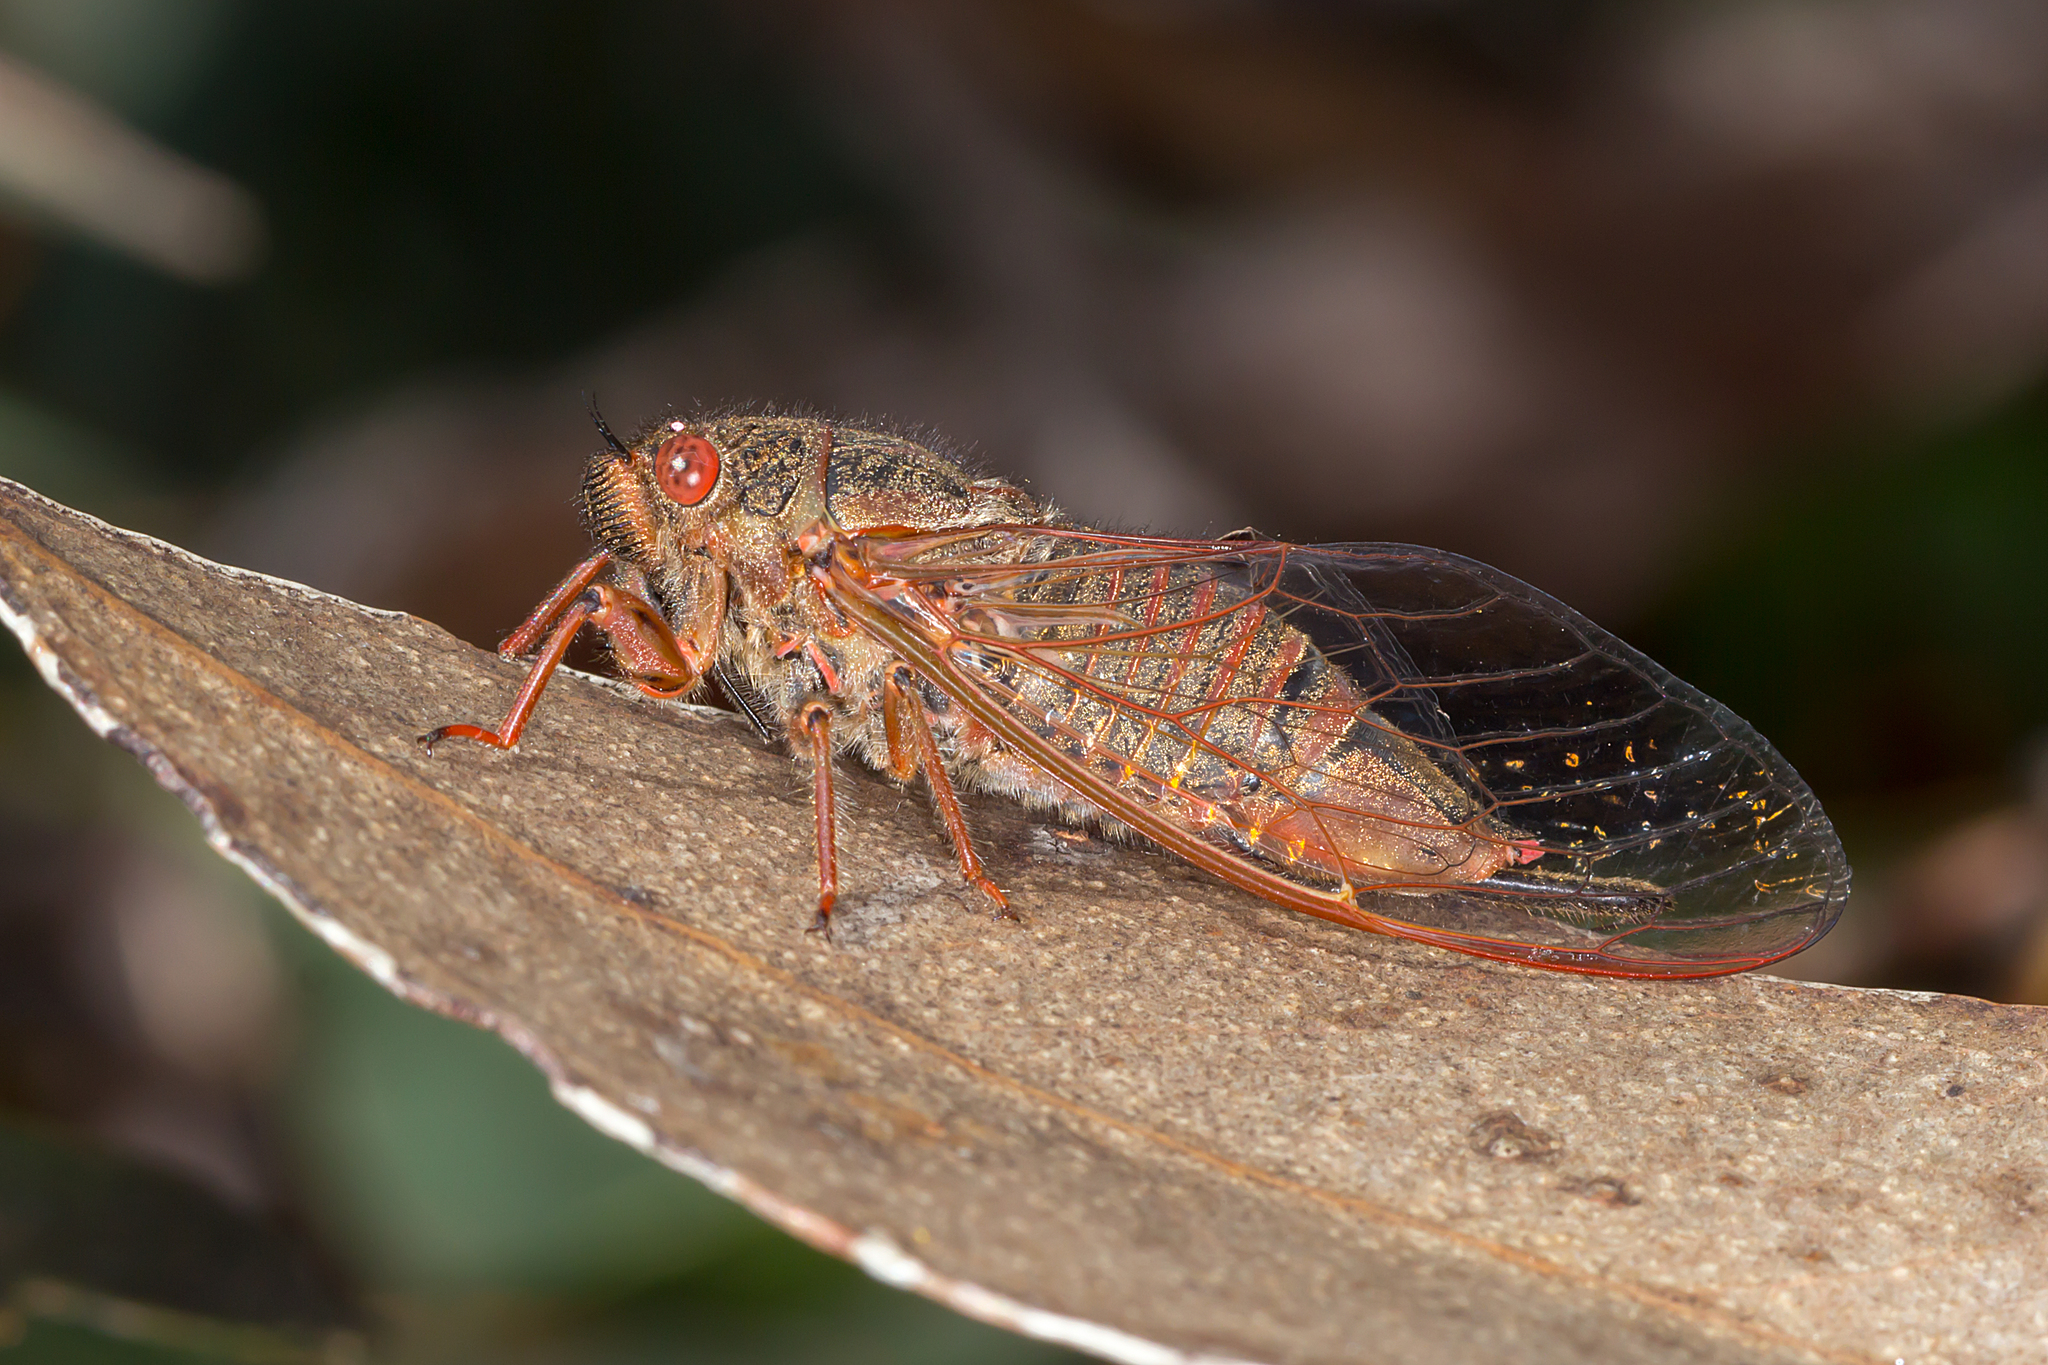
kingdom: Animalia
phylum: Arthropoda
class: Insecta
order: Hemiptera
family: Cicadidae
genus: Popplepsalta
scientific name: Popplepsalta rubristrigata
